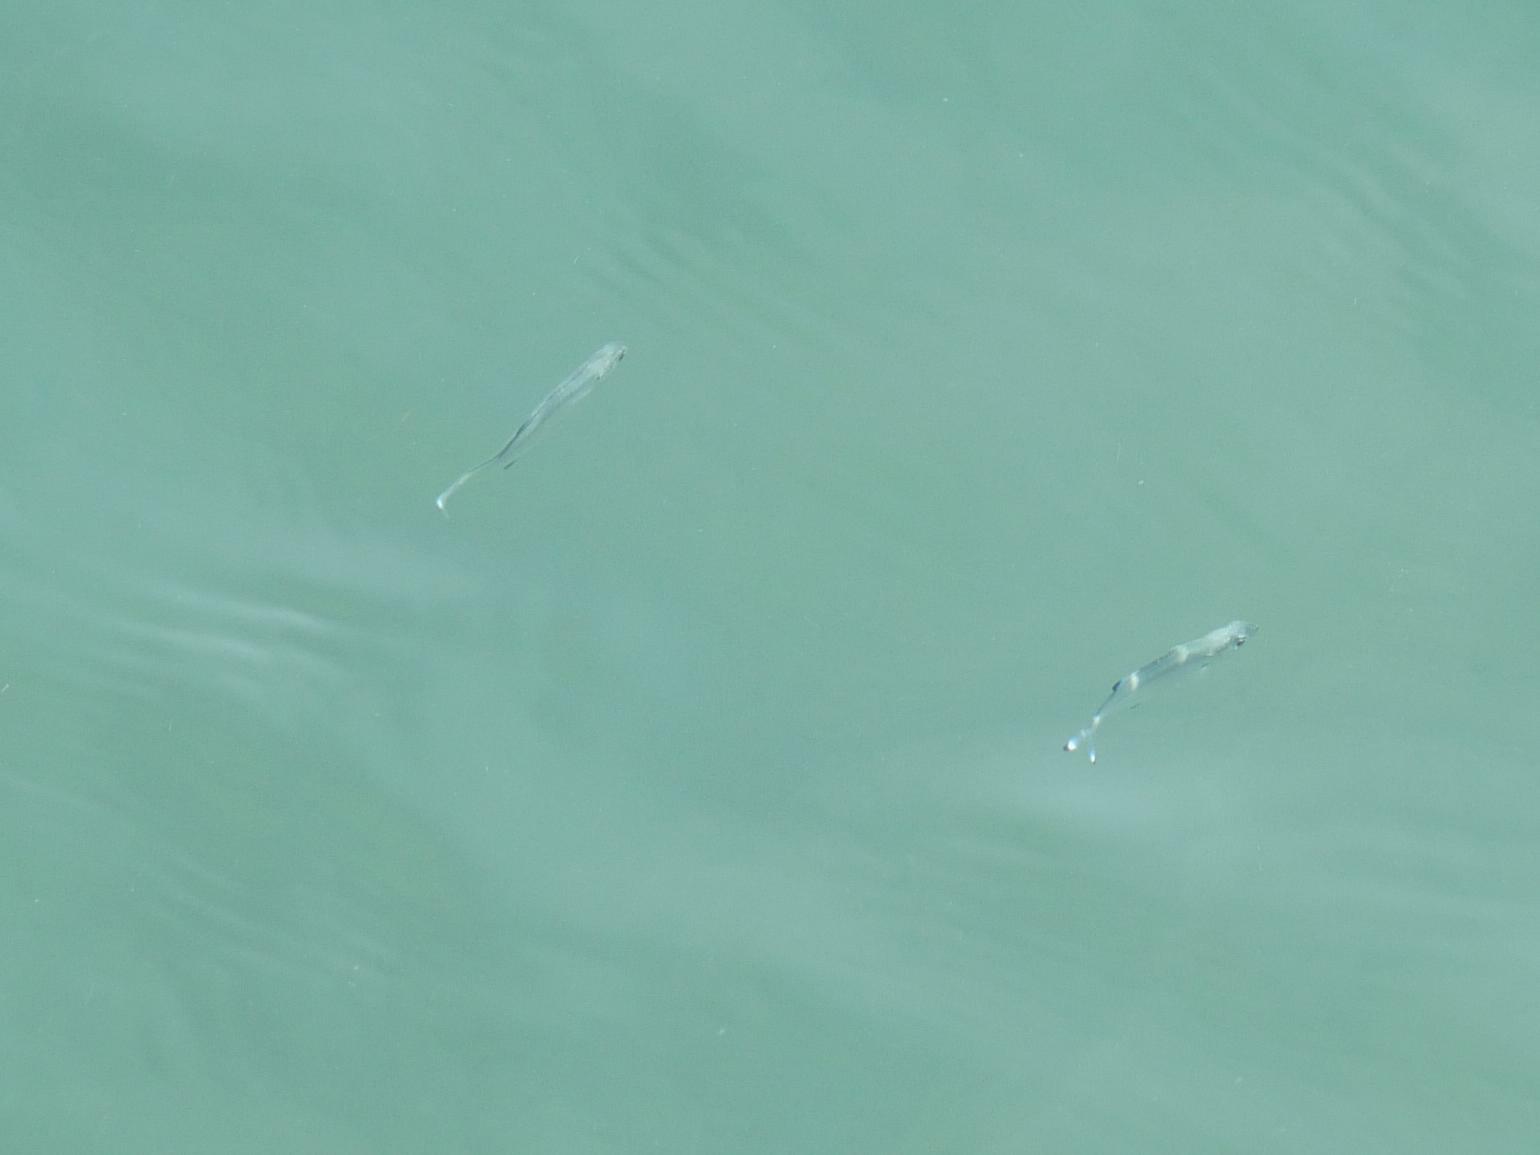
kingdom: Animalia
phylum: Chordata
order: Perciformes
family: Carangidae
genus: Trachinotus
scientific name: Trachinotus ovatus
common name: Pompano
